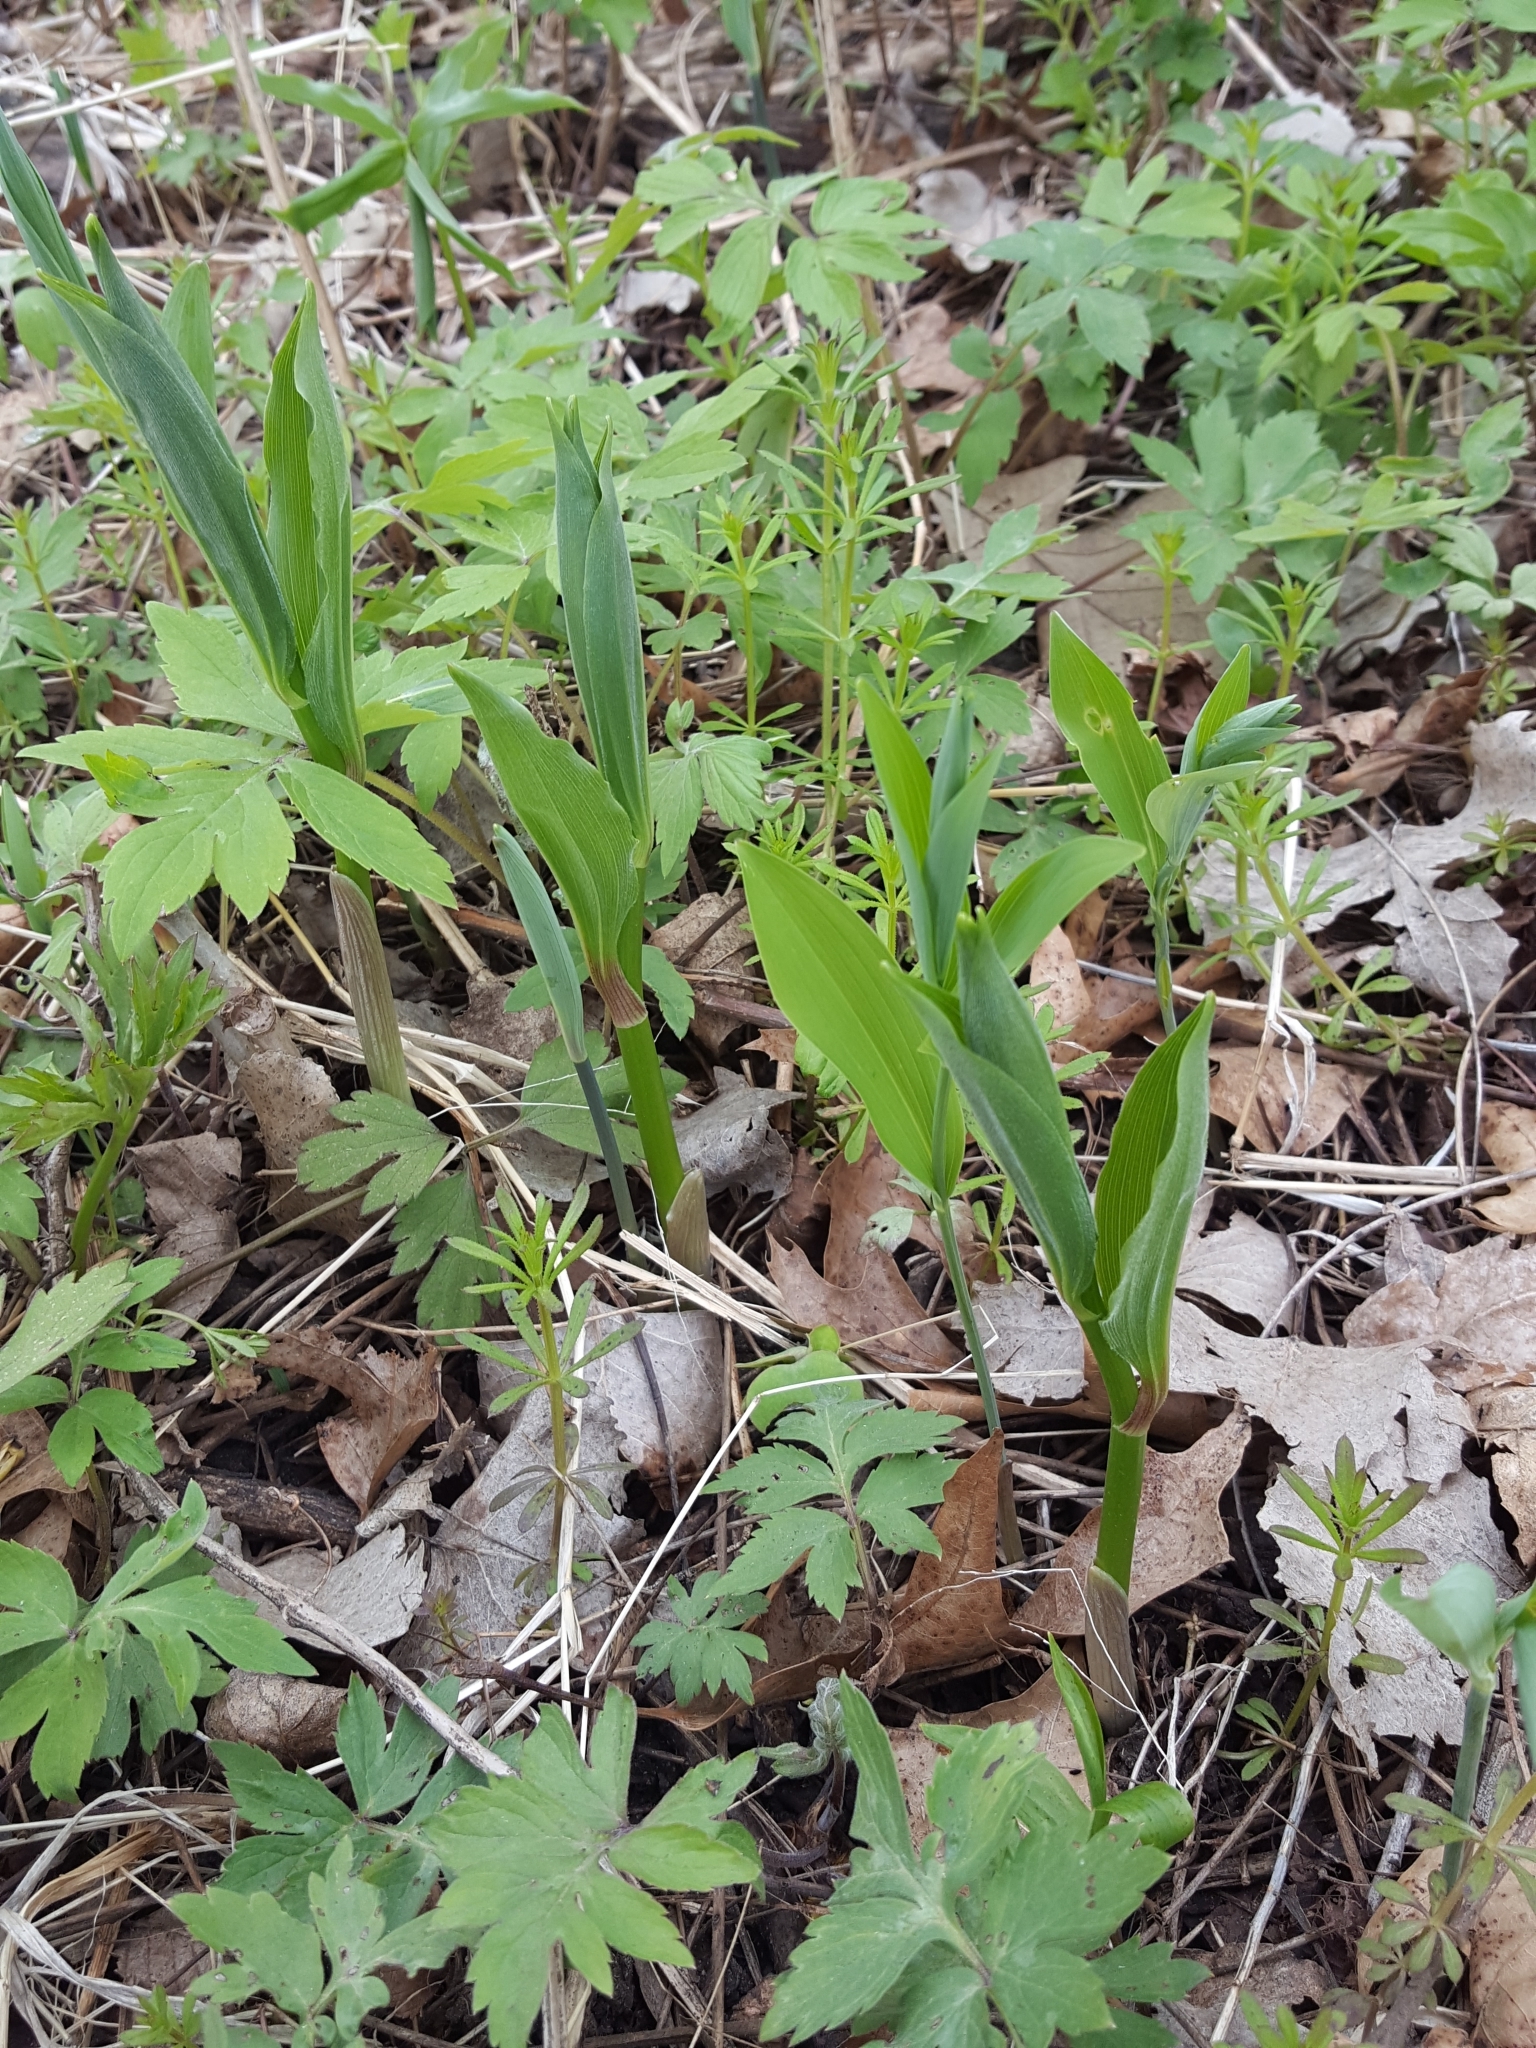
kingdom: Plantae
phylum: Tracheophyta
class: Liliopsida
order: Asparagales
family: Asparagaceae
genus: Maianthemum
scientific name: Maianthemum racemosum
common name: False spikenard
